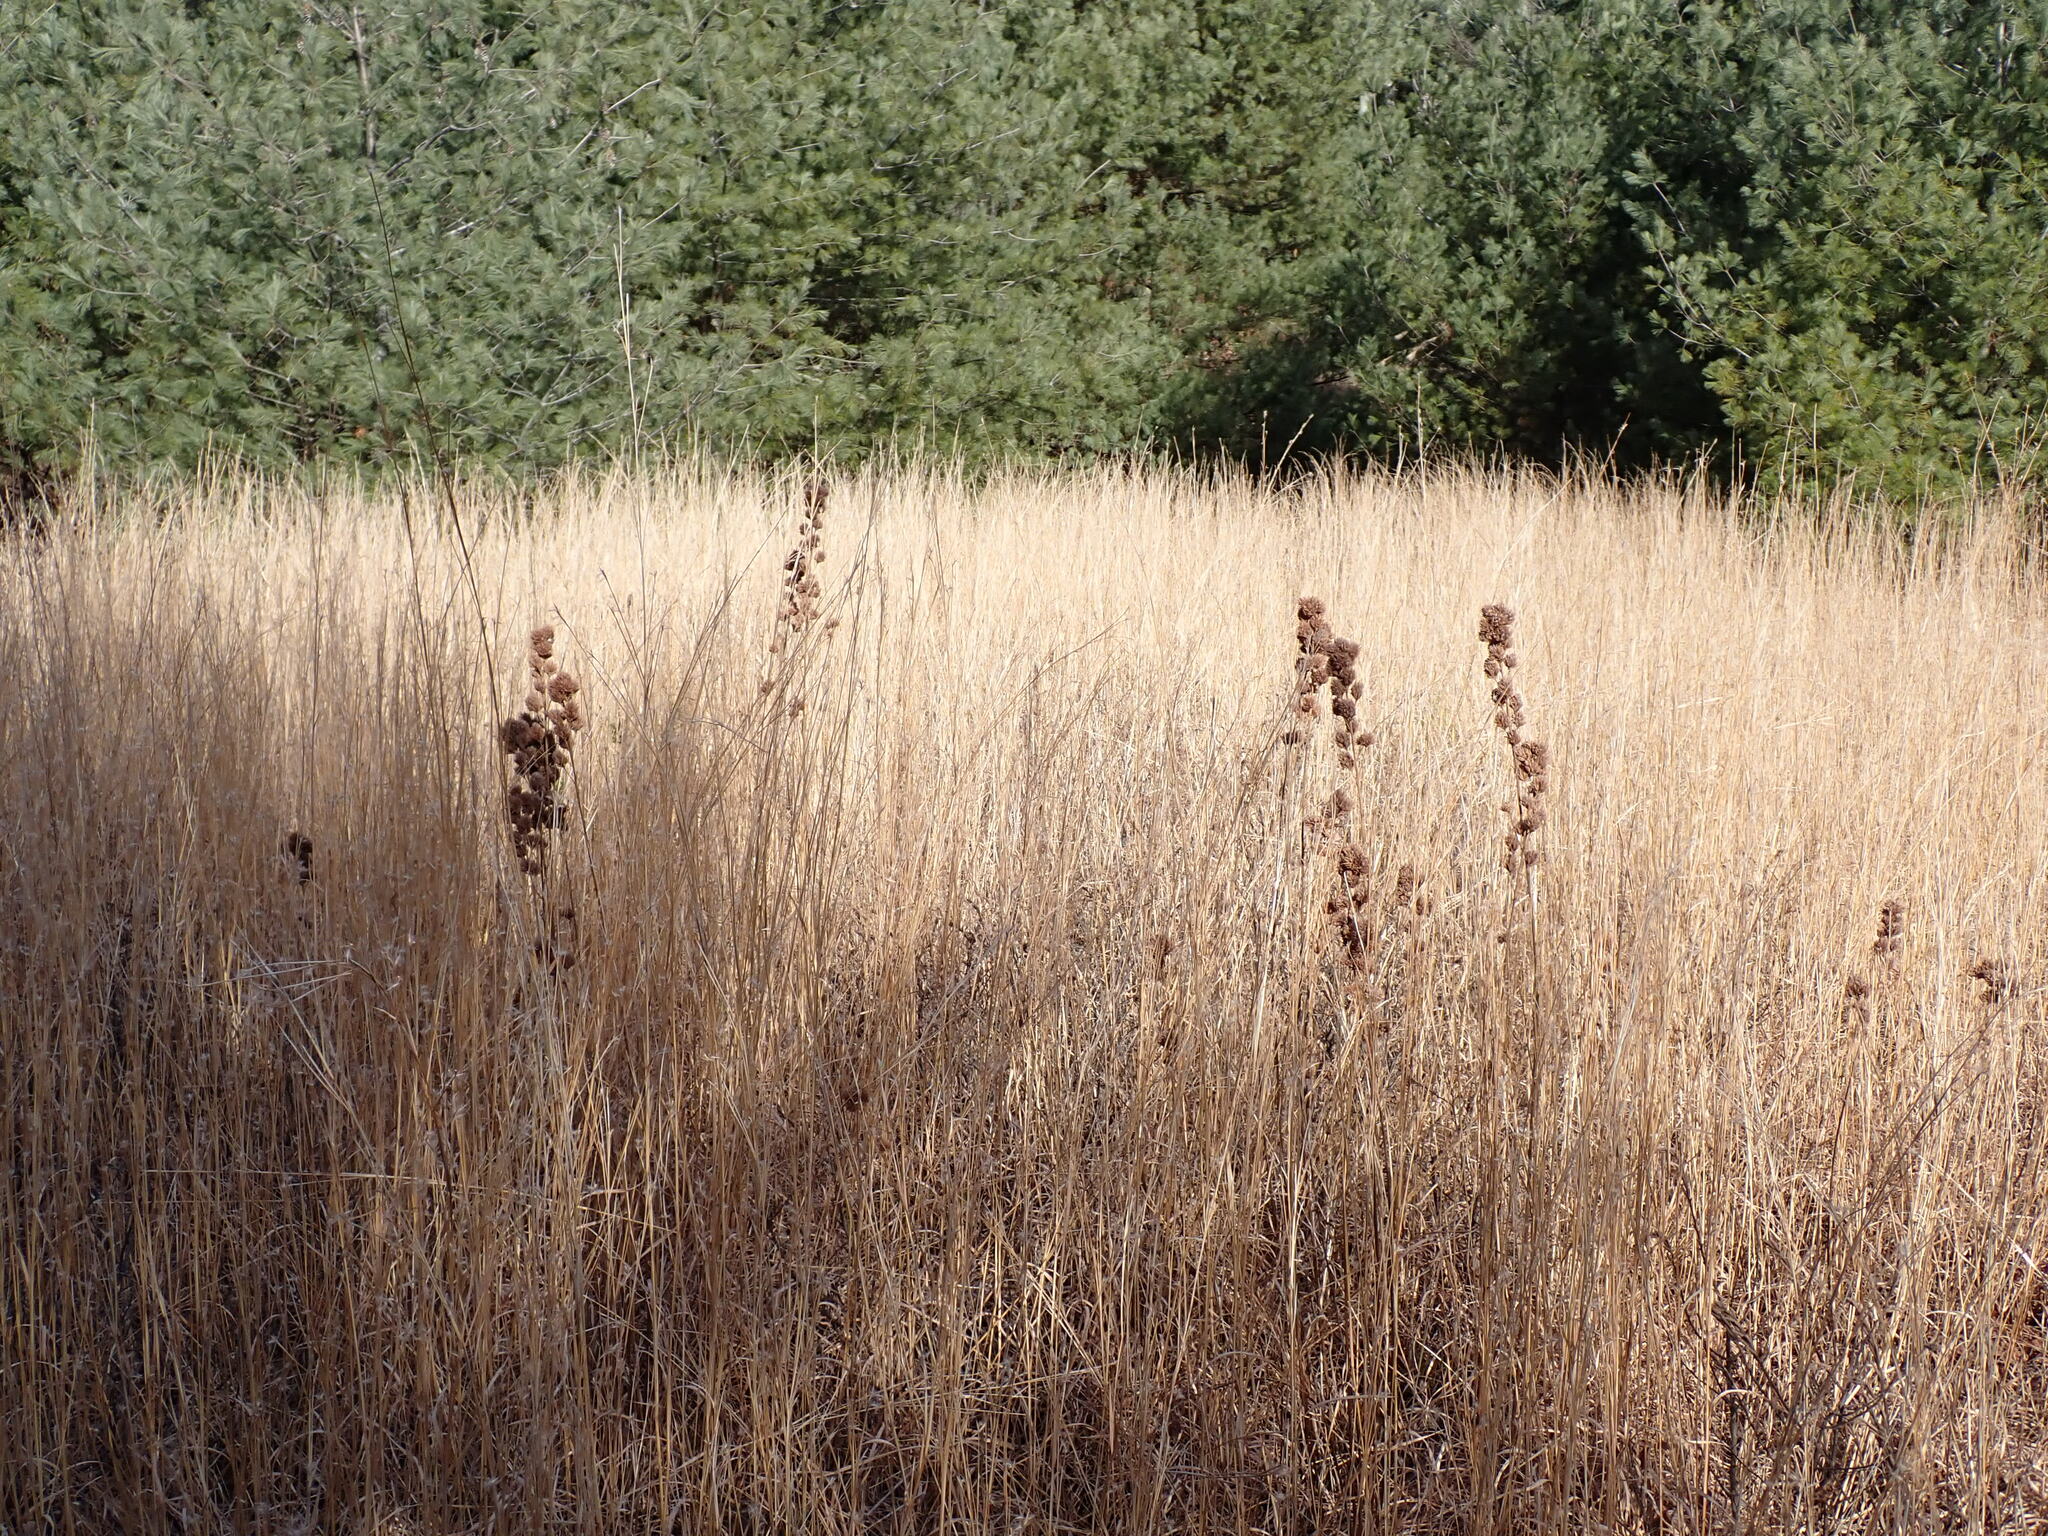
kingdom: Plantae
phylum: Tracheophyta
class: Liliopsida
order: Poales
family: Poaceae
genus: Schizachyrium
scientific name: Schizachyrium scoparium
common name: Little bluestem
